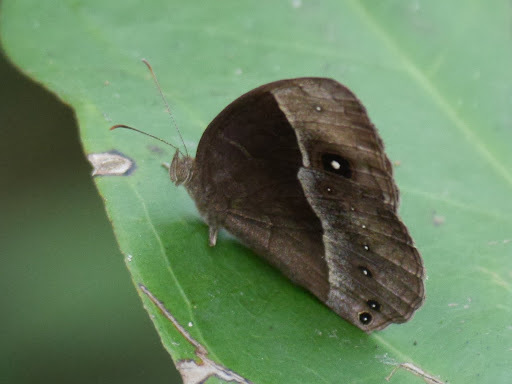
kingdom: Animalia
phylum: Arthropoda
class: Insecta
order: Lepidoptera
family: Nymphalidae
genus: Mycalesis
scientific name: Mycalesis rhacotis
